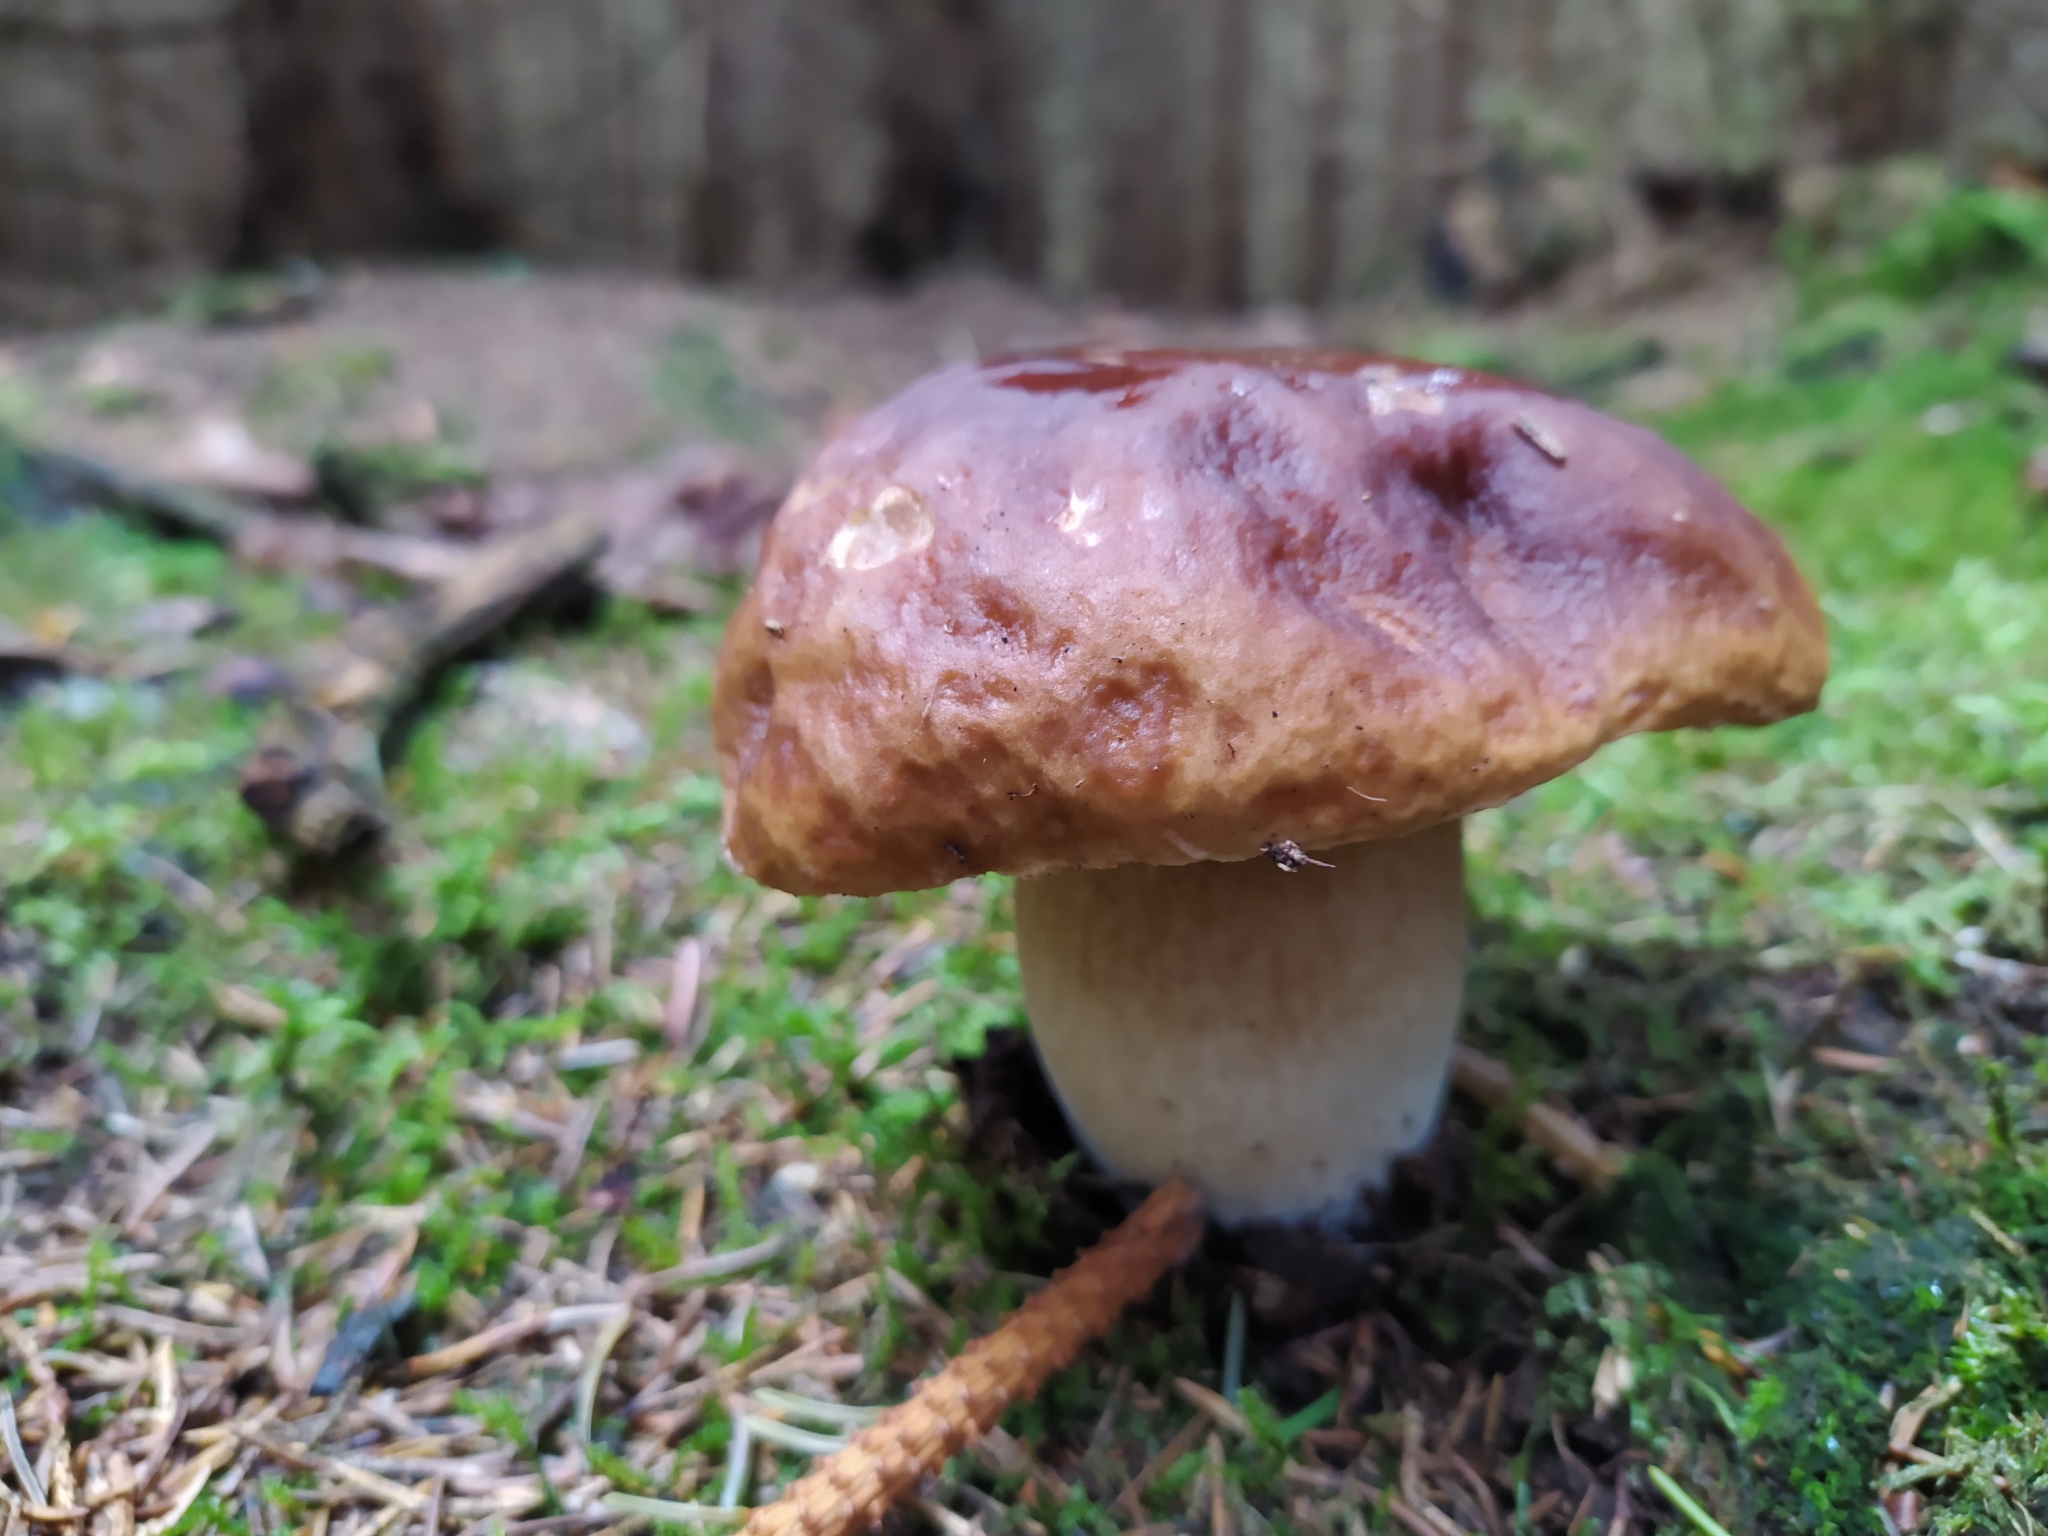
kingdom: Fungi
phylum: Basidiomycota
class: Agaricomycetes
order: Boletales
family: Boletaceae
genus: Boletus
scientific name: Boletus edulis
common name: Cep
